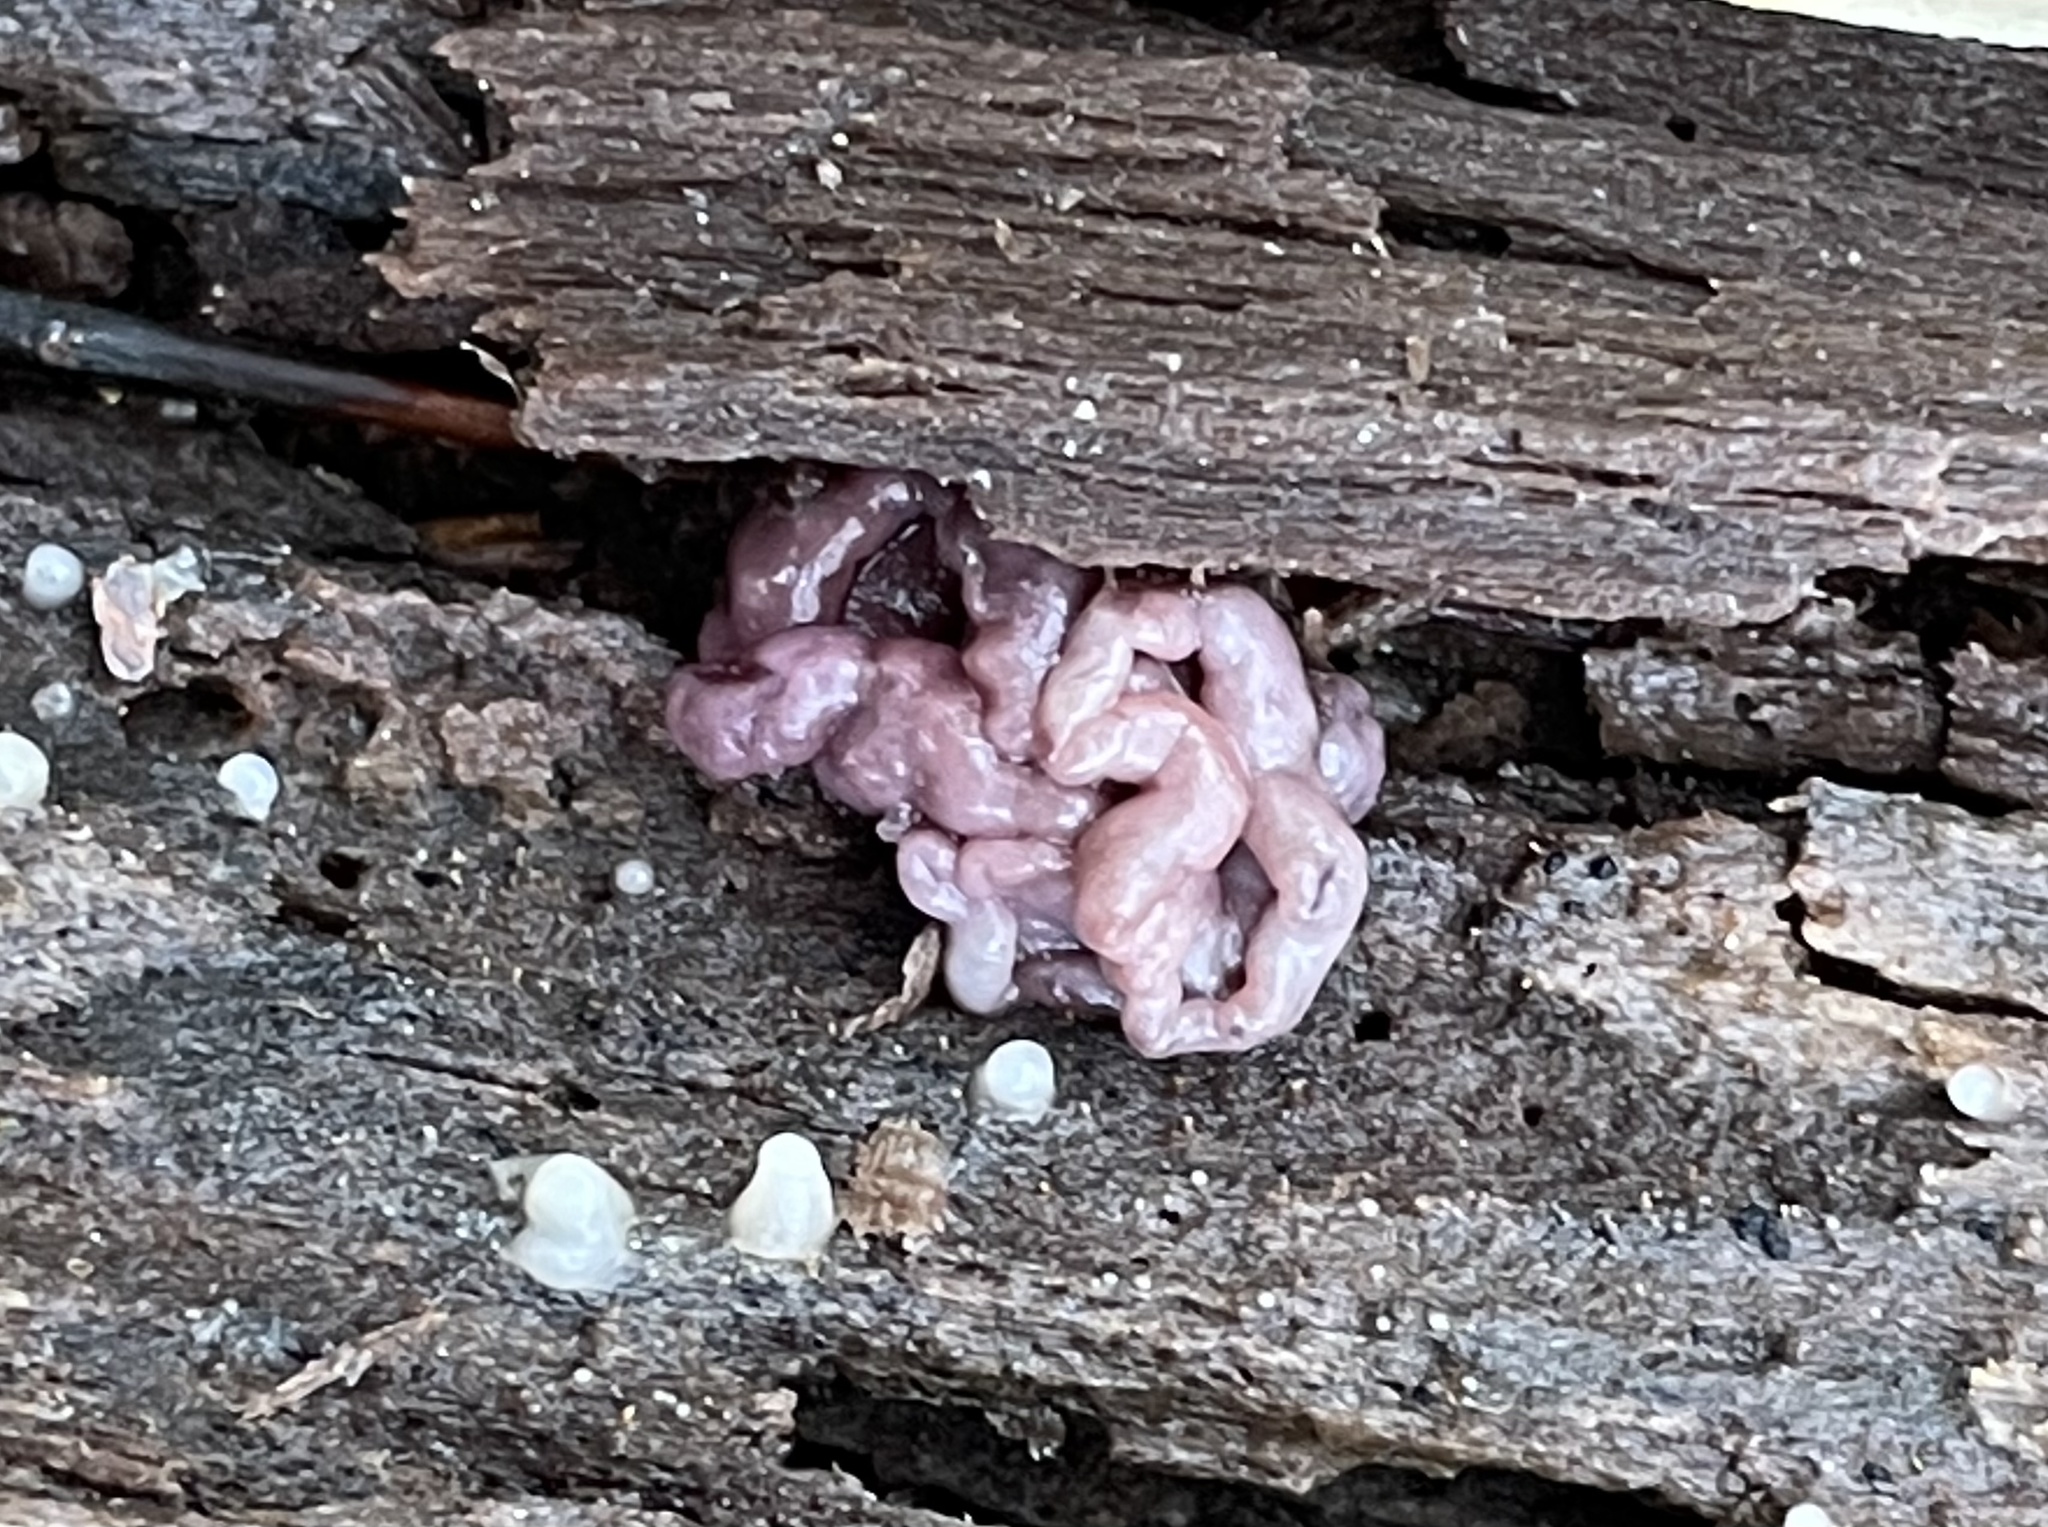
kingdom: Fungi
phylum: Ascomycota
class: Leotiomycetes
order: Helotiales
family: Gelatinodiscaceae
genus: Ascocoryne
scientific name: Ascocoryne sarcoides
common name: Purple jellydisc
